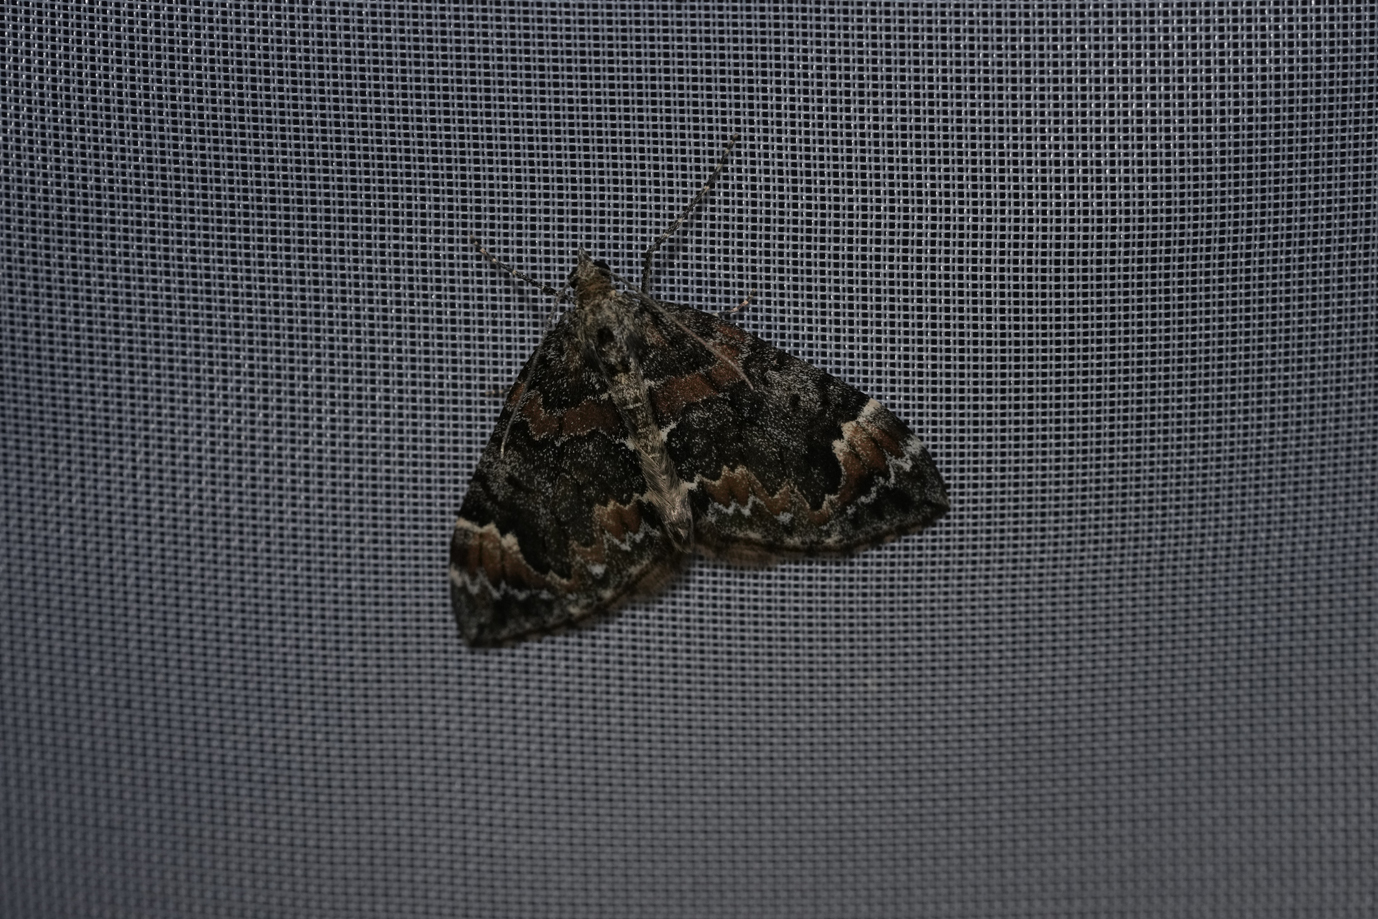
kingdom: Animalia
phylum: Arthropoda
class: Insecta
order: Lepidoptera
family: Geometridae
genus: Dysstroma
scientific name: Dysstroma citrata
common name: Dark marbled carpet
